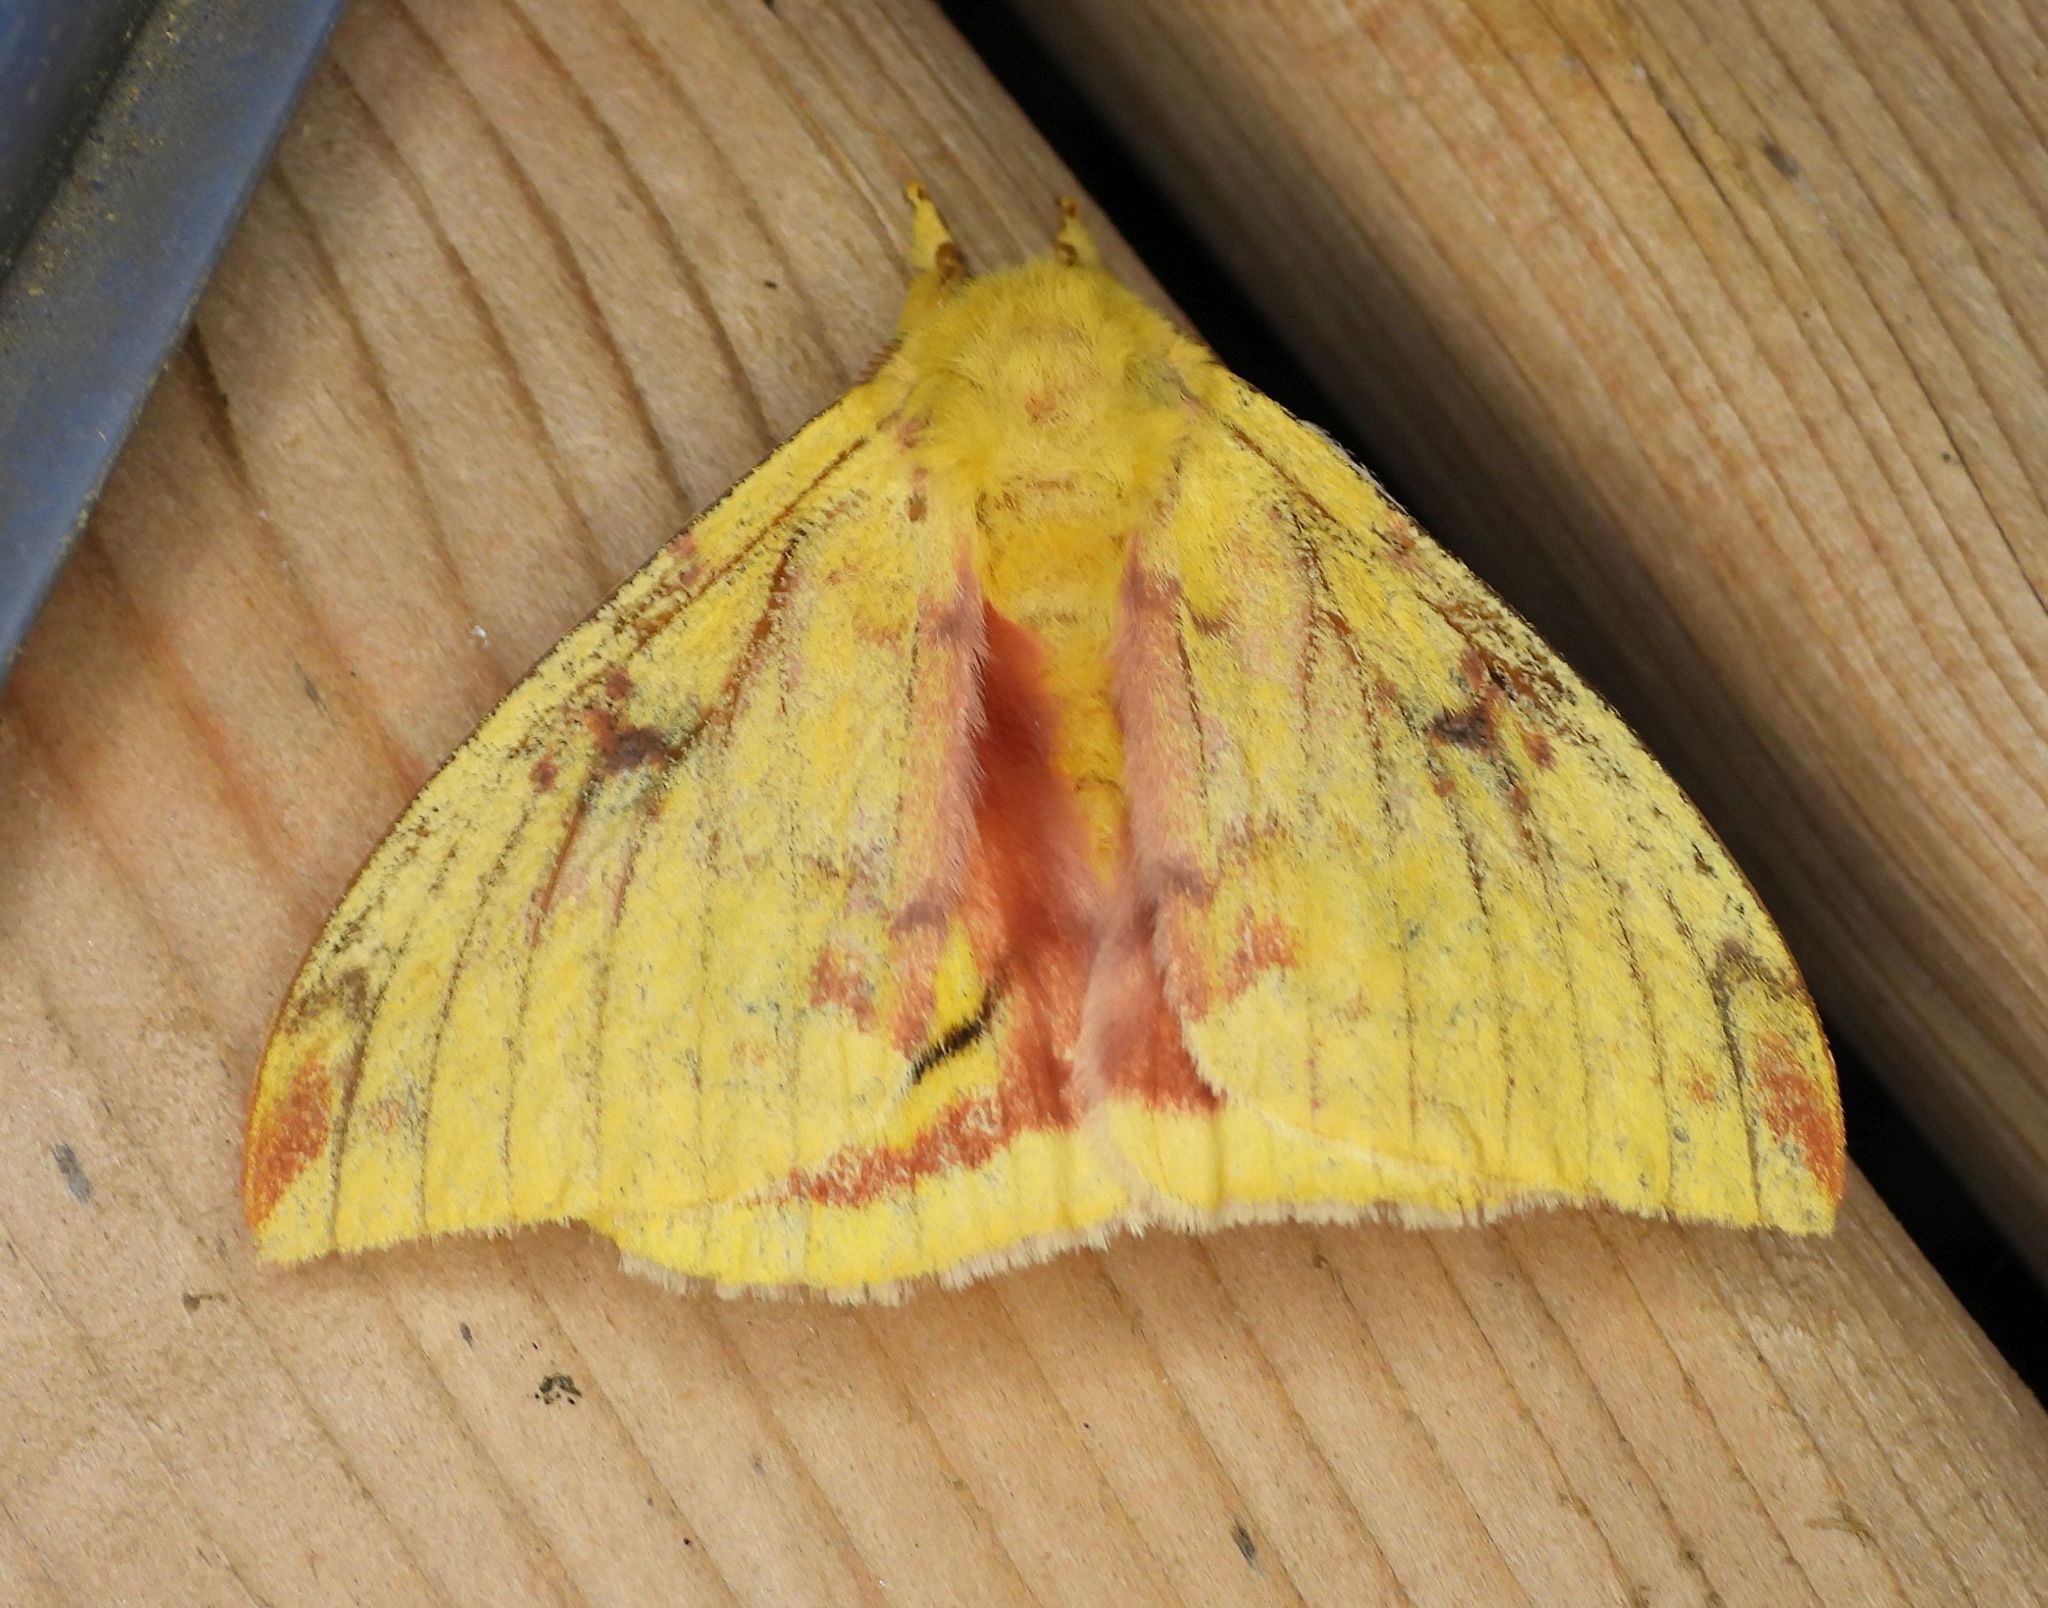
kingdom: Animalia
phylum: Arthropoda
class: Insecta
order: Lepidoptera
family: Saturniidae
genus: Automeris
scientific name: Automeris io
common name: Io moth
